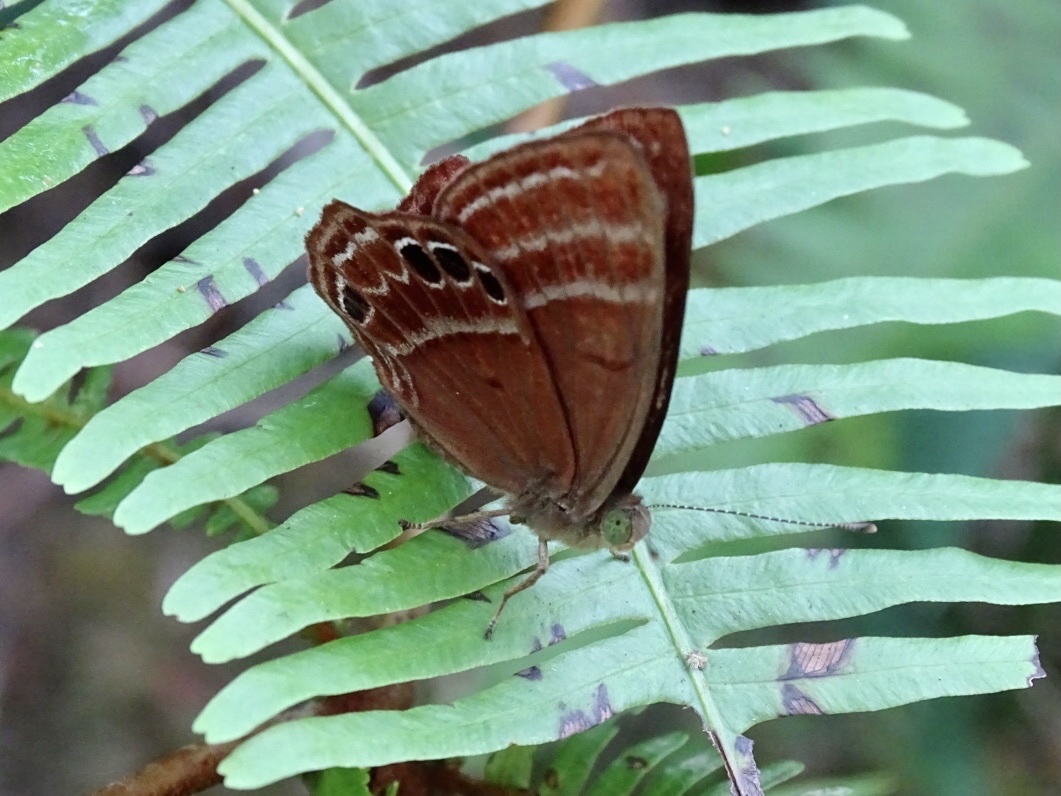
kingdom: Animalia
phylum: Arthropoda
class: Insecta
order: Lepidoptera
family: Lycaenidae
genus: Abisara
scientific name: Abisara echeria
